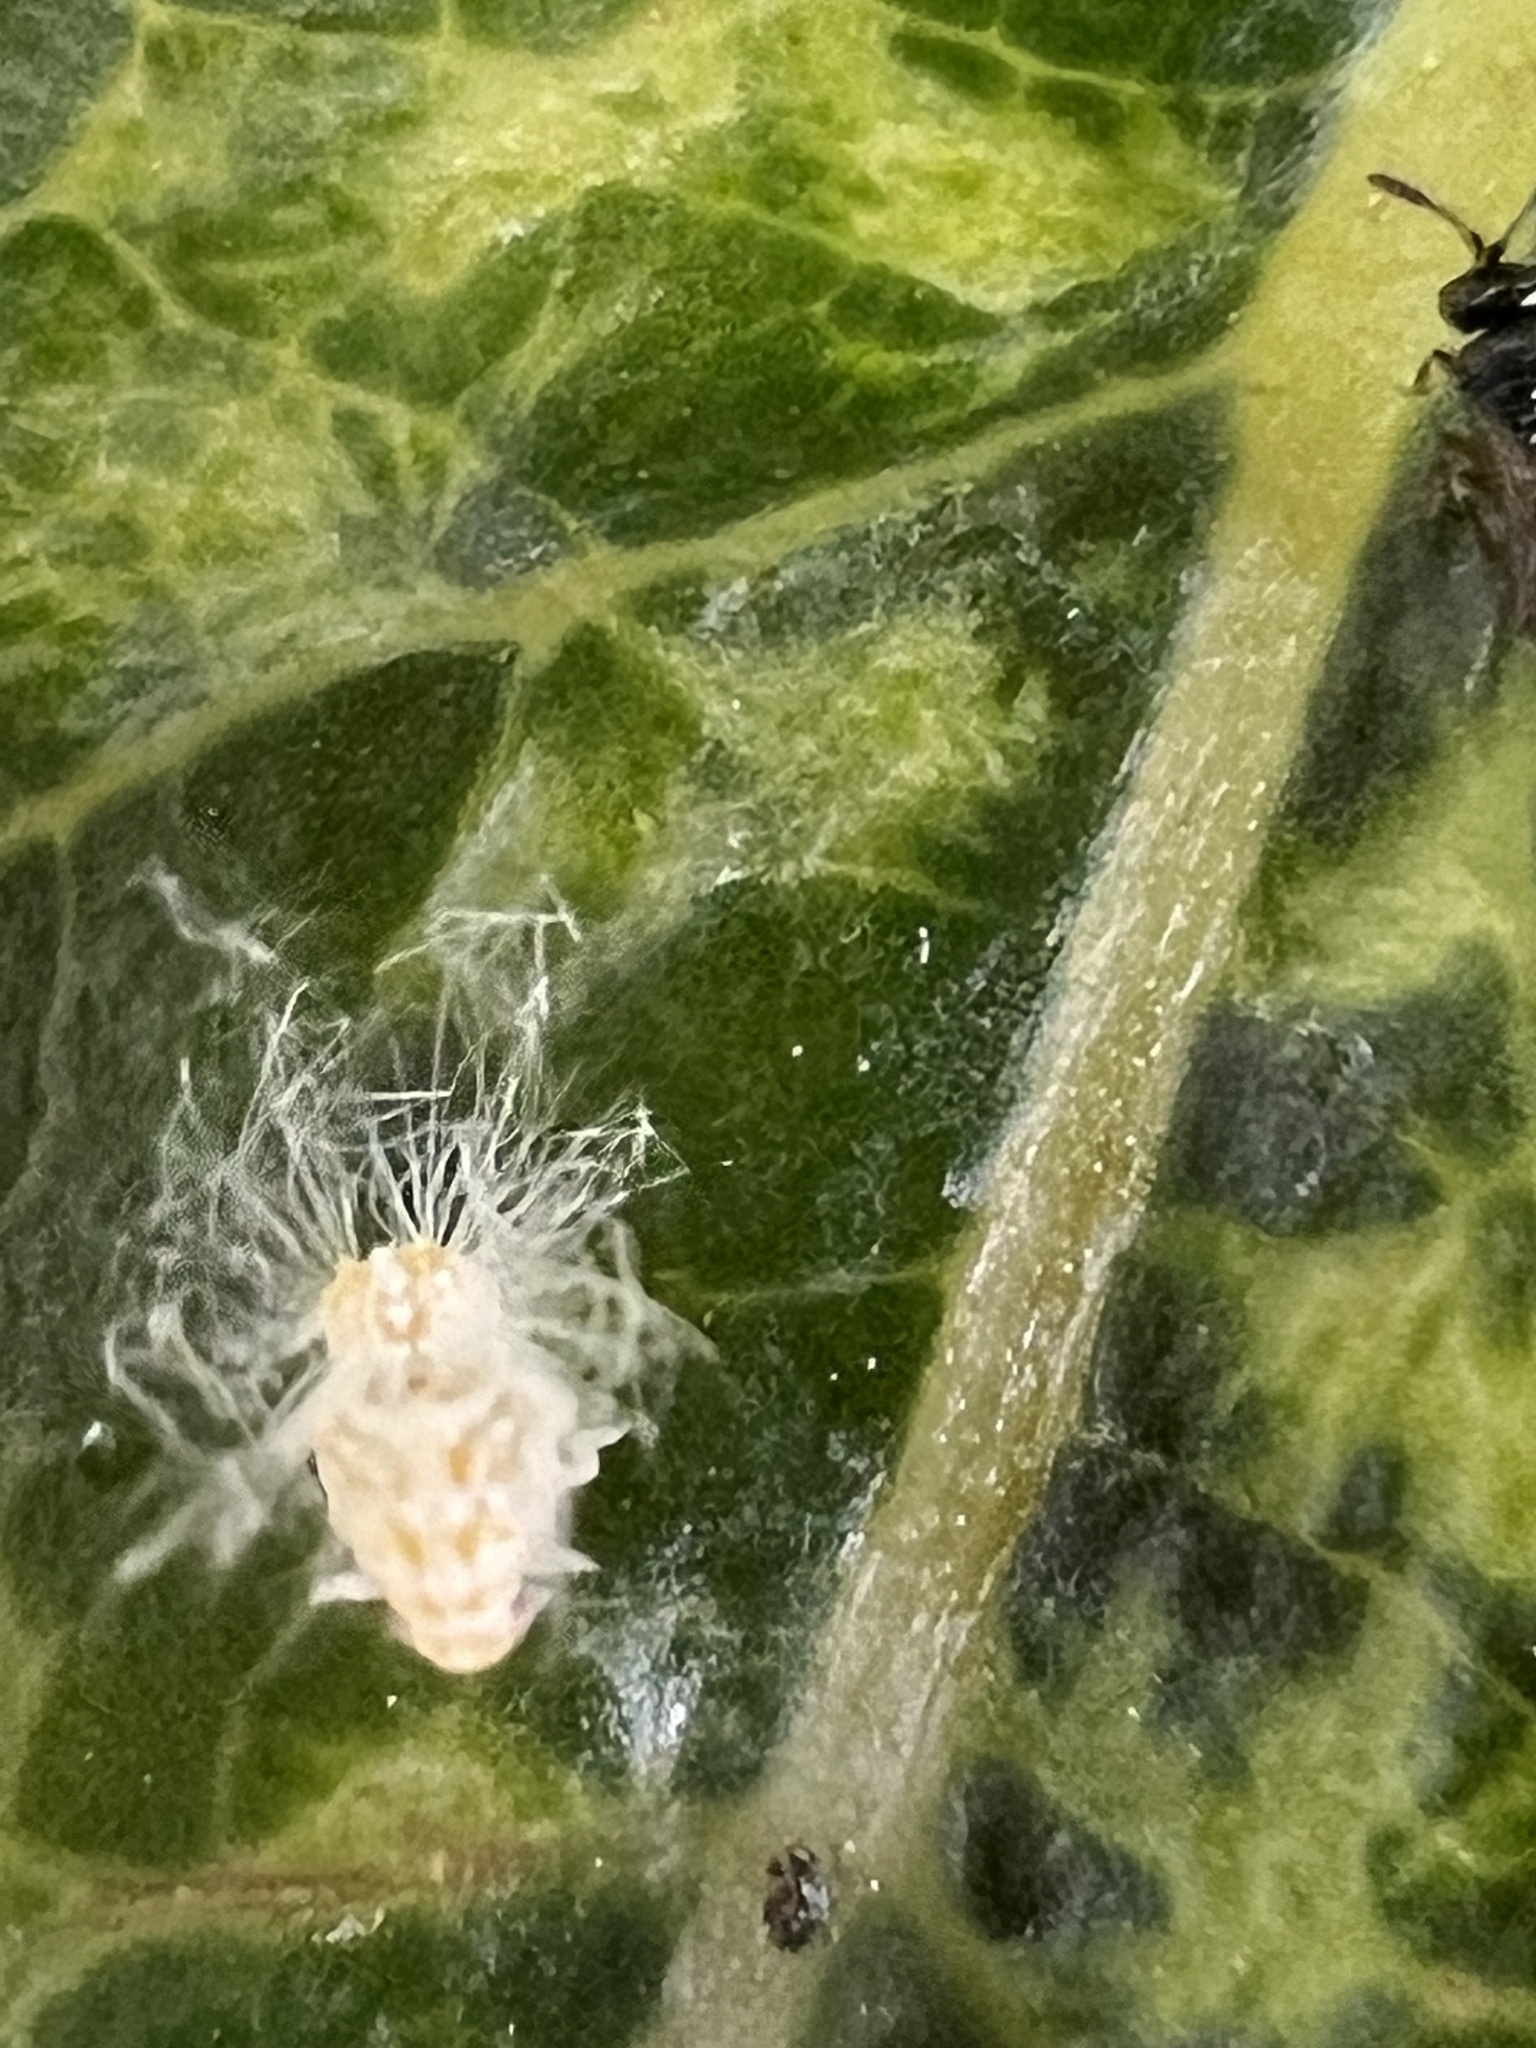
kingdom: Animalia
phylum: Arthropoda
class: Insecta
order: Hemiptera
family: Ricaniidae
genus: Scolypopa
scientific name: Scolypopa australis
